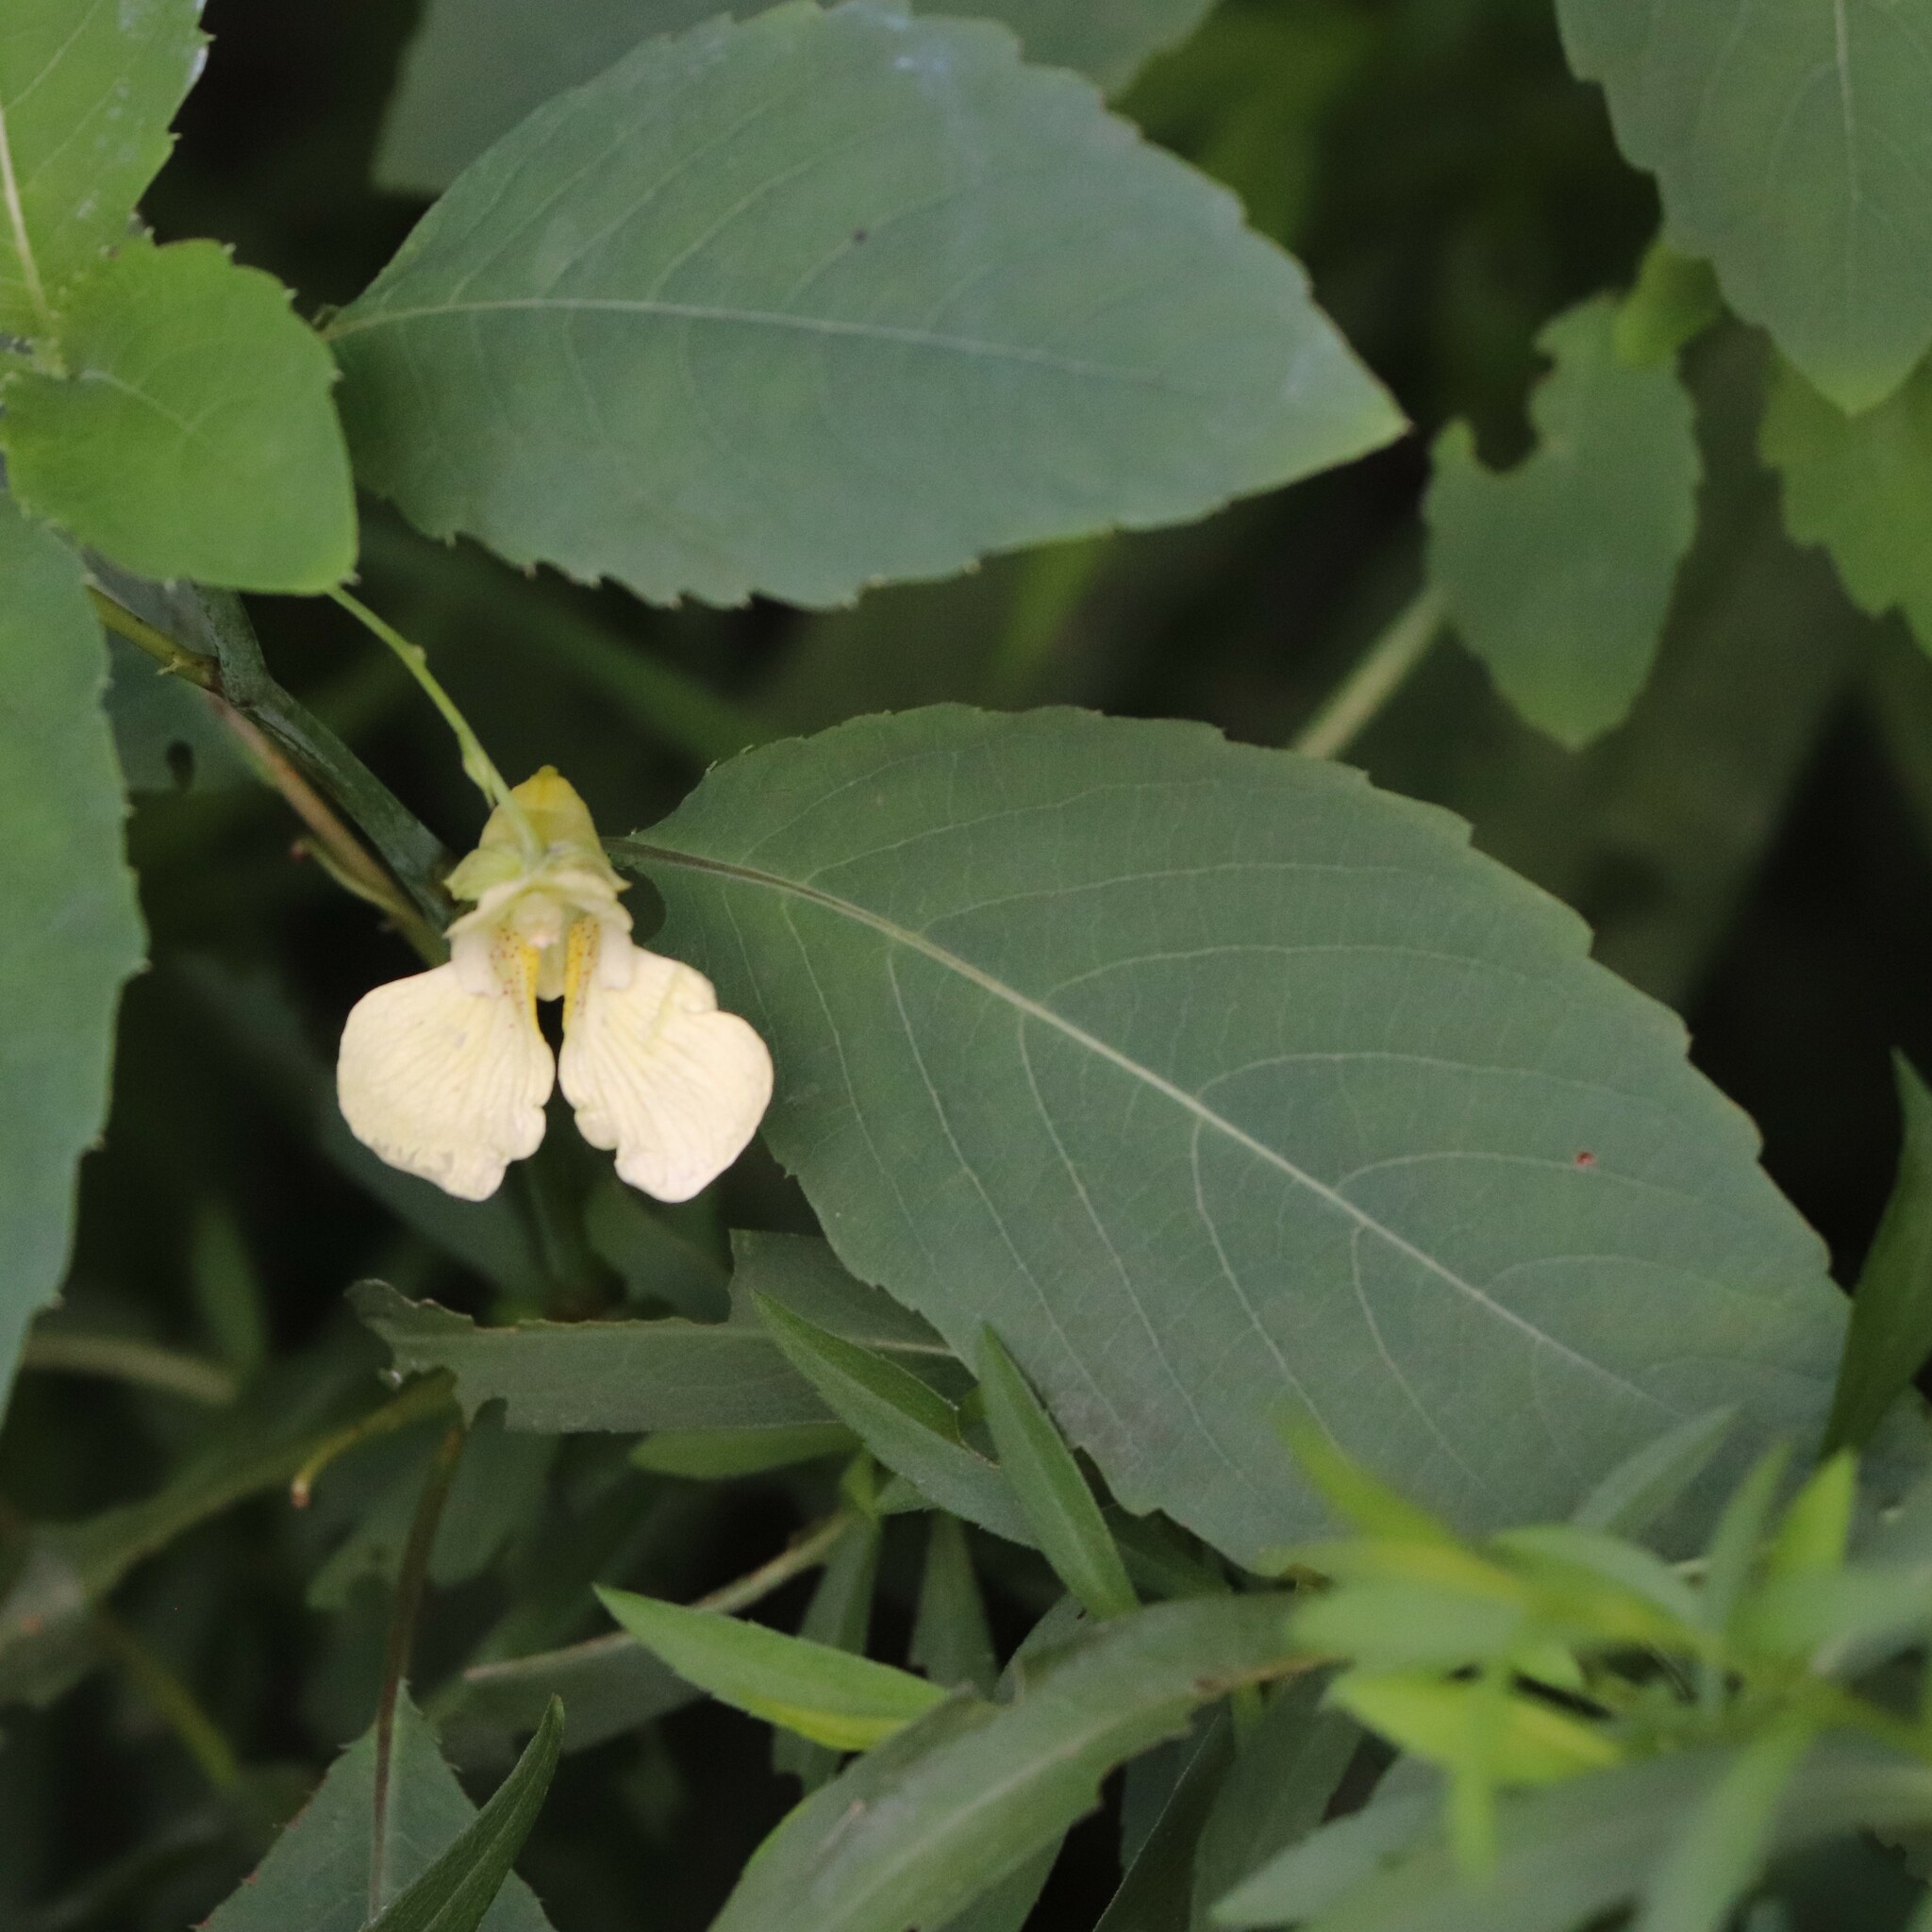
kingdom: Plantae
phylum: Tracheophyta
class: Magnoliopsida
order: Ericales
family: Balsaminaceae
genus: Impatiens
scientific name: Impatiens pallida
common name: Pale snapweed
